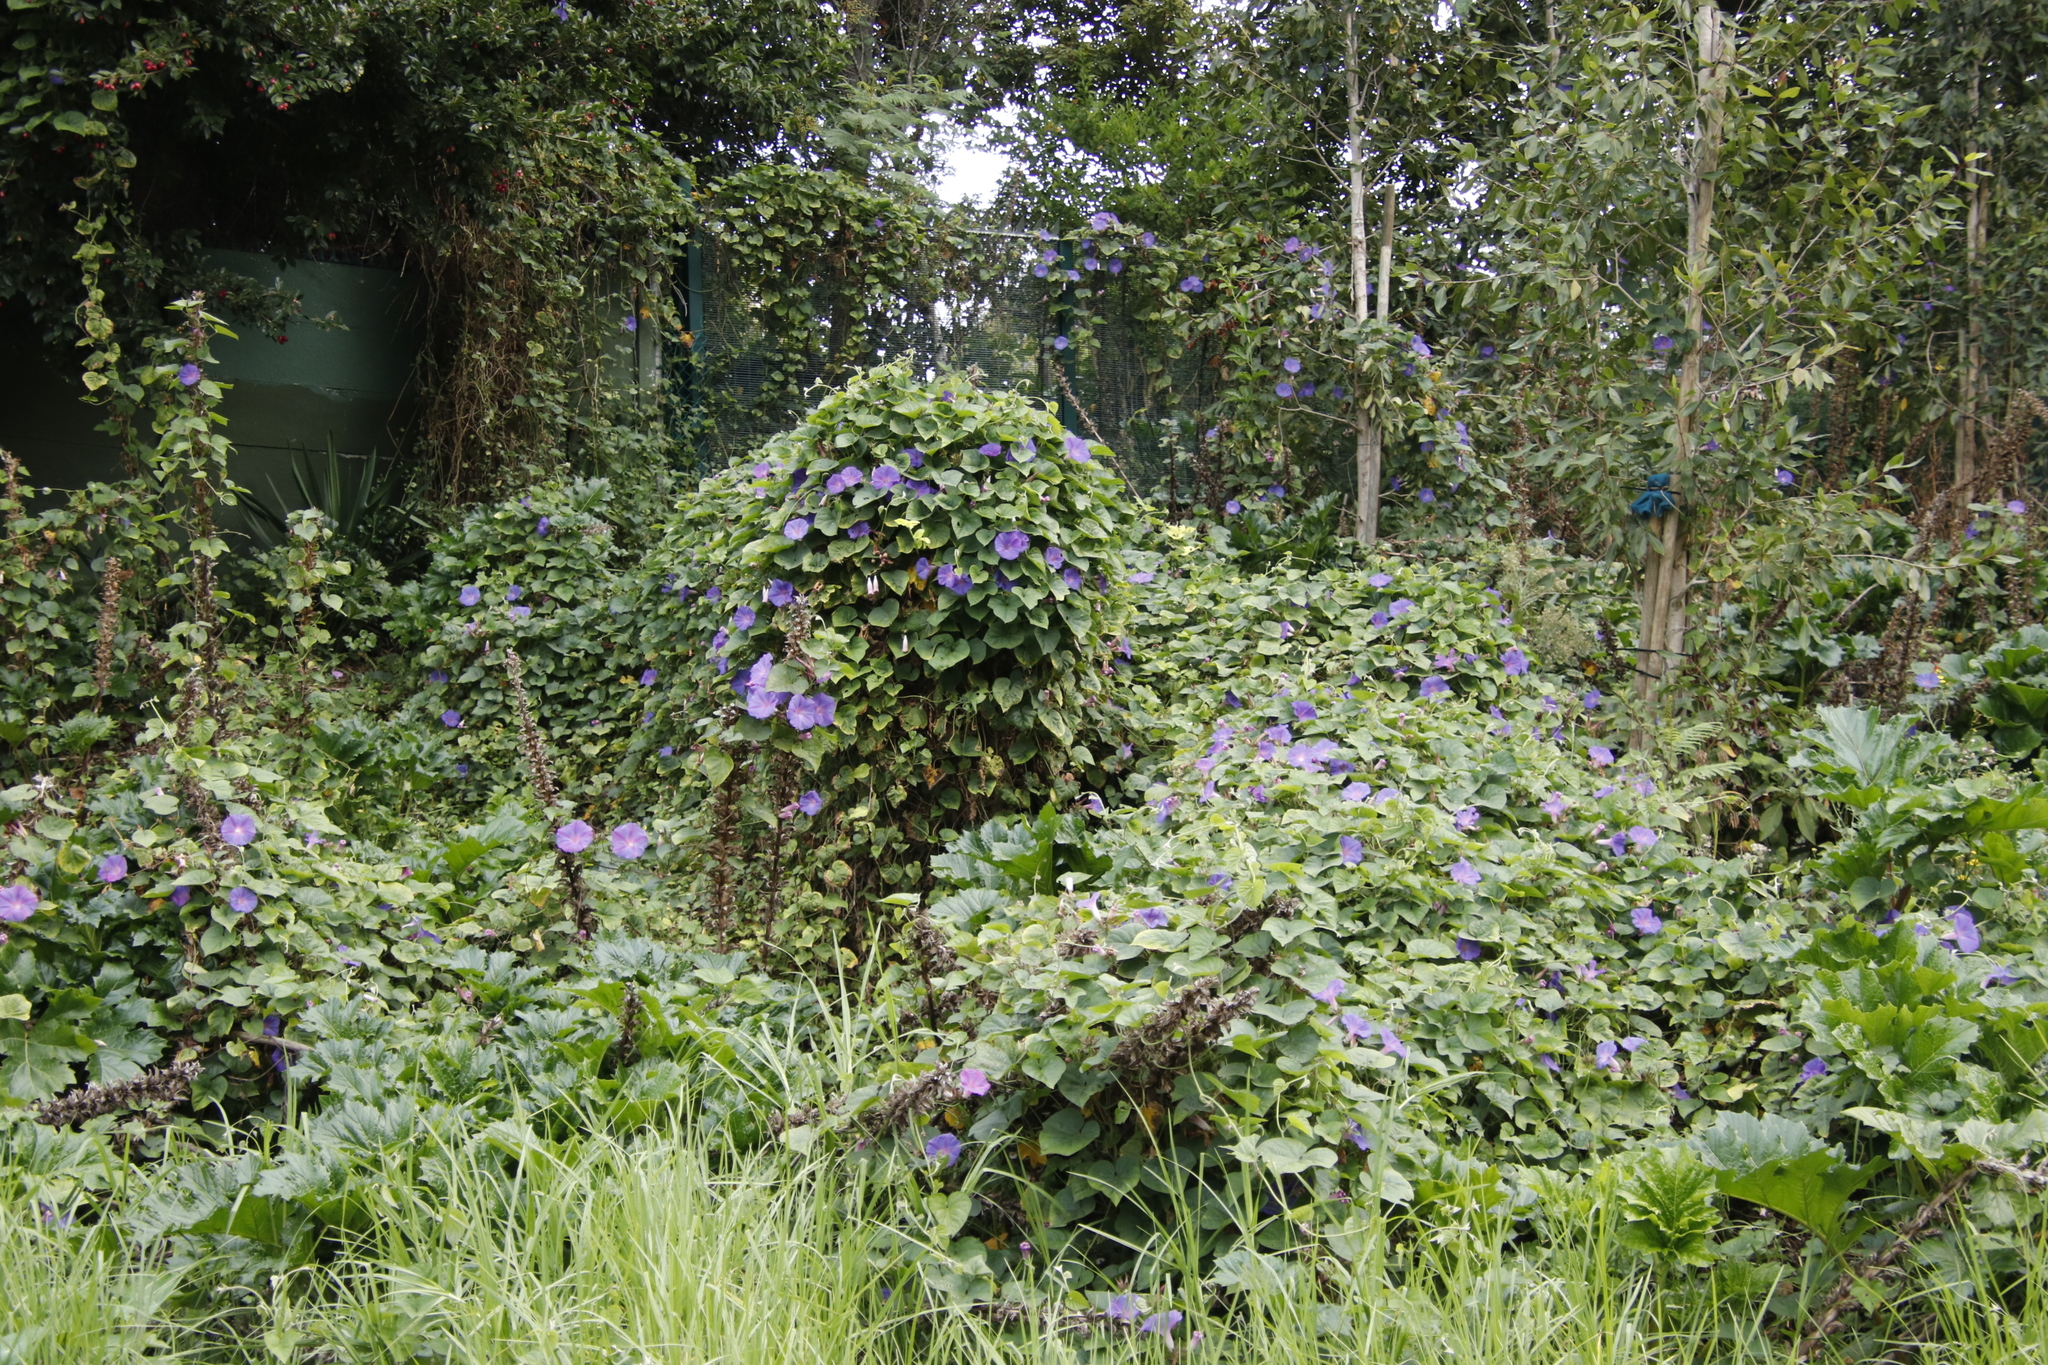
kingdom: Plantae
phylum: Tracheophyta
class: Magnoliopsida
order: Solanales
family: Convolvulaceae
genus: Ipomoea
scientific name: Ipomoea indica
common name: Blue dawnflower
